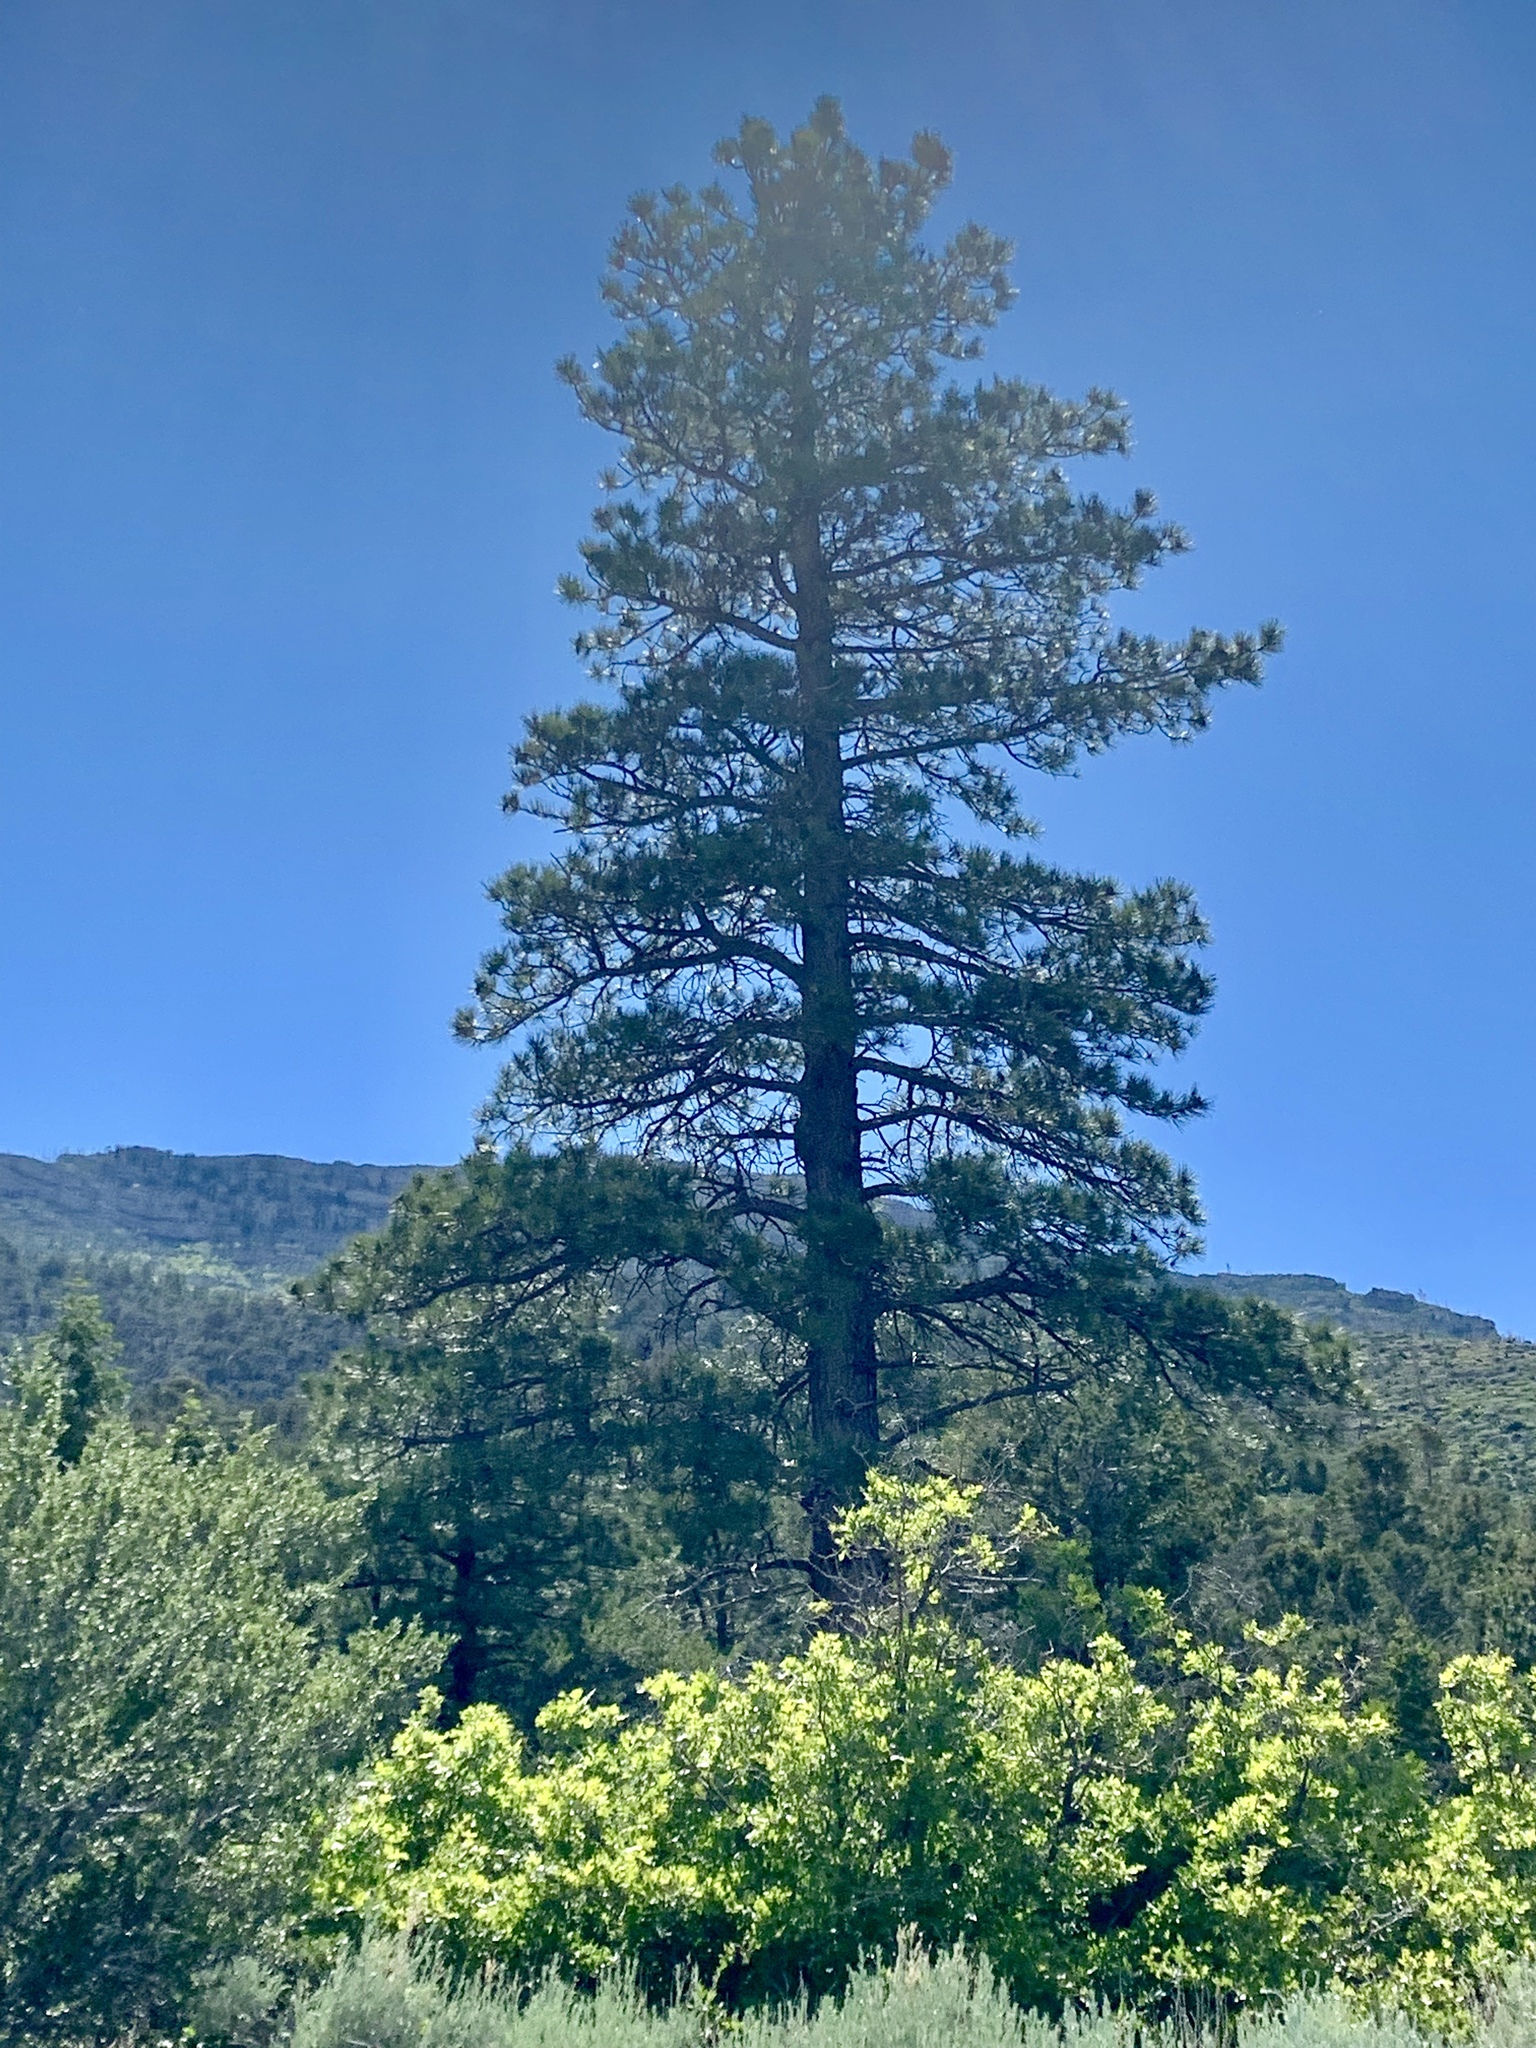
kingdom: Plantae
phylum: Tracheophyta
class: Pinopsida
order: Pinales
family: Pinaceae
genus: Pinus
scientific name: Pinus ponderosa
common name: Western yellow-pine
